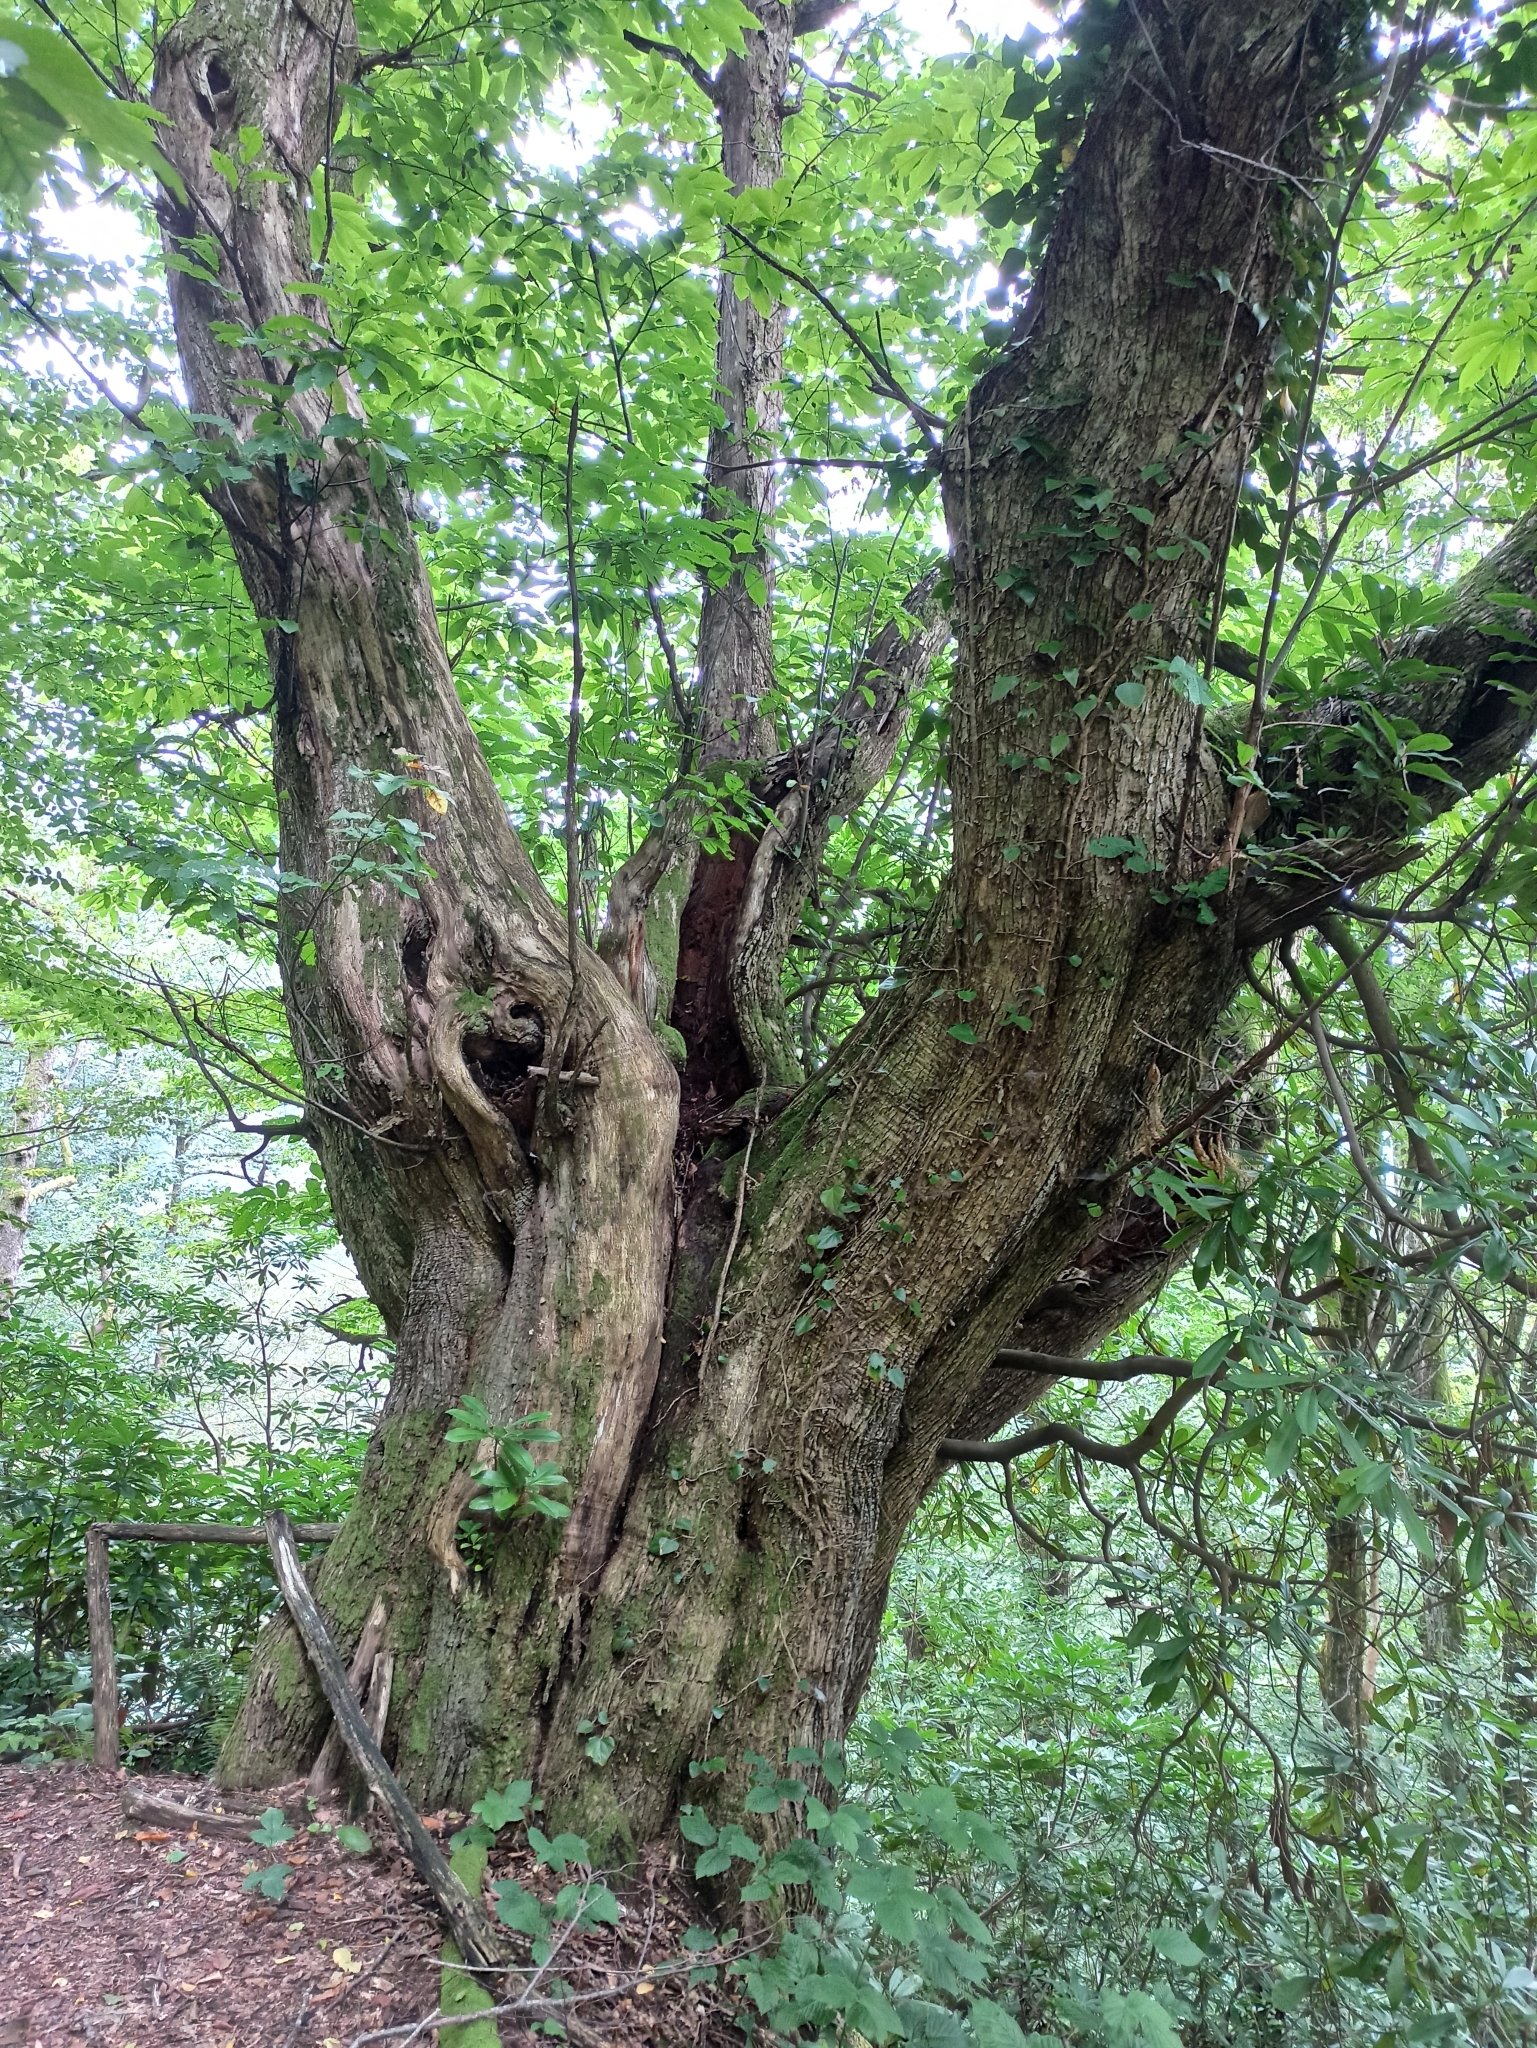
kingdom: Plantae
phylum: Tracheophyta
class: Magnoliopsida
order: Fagales
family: Fagaceae
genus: Castanea
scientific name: Castanea sativa
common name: Sweet chestnut
